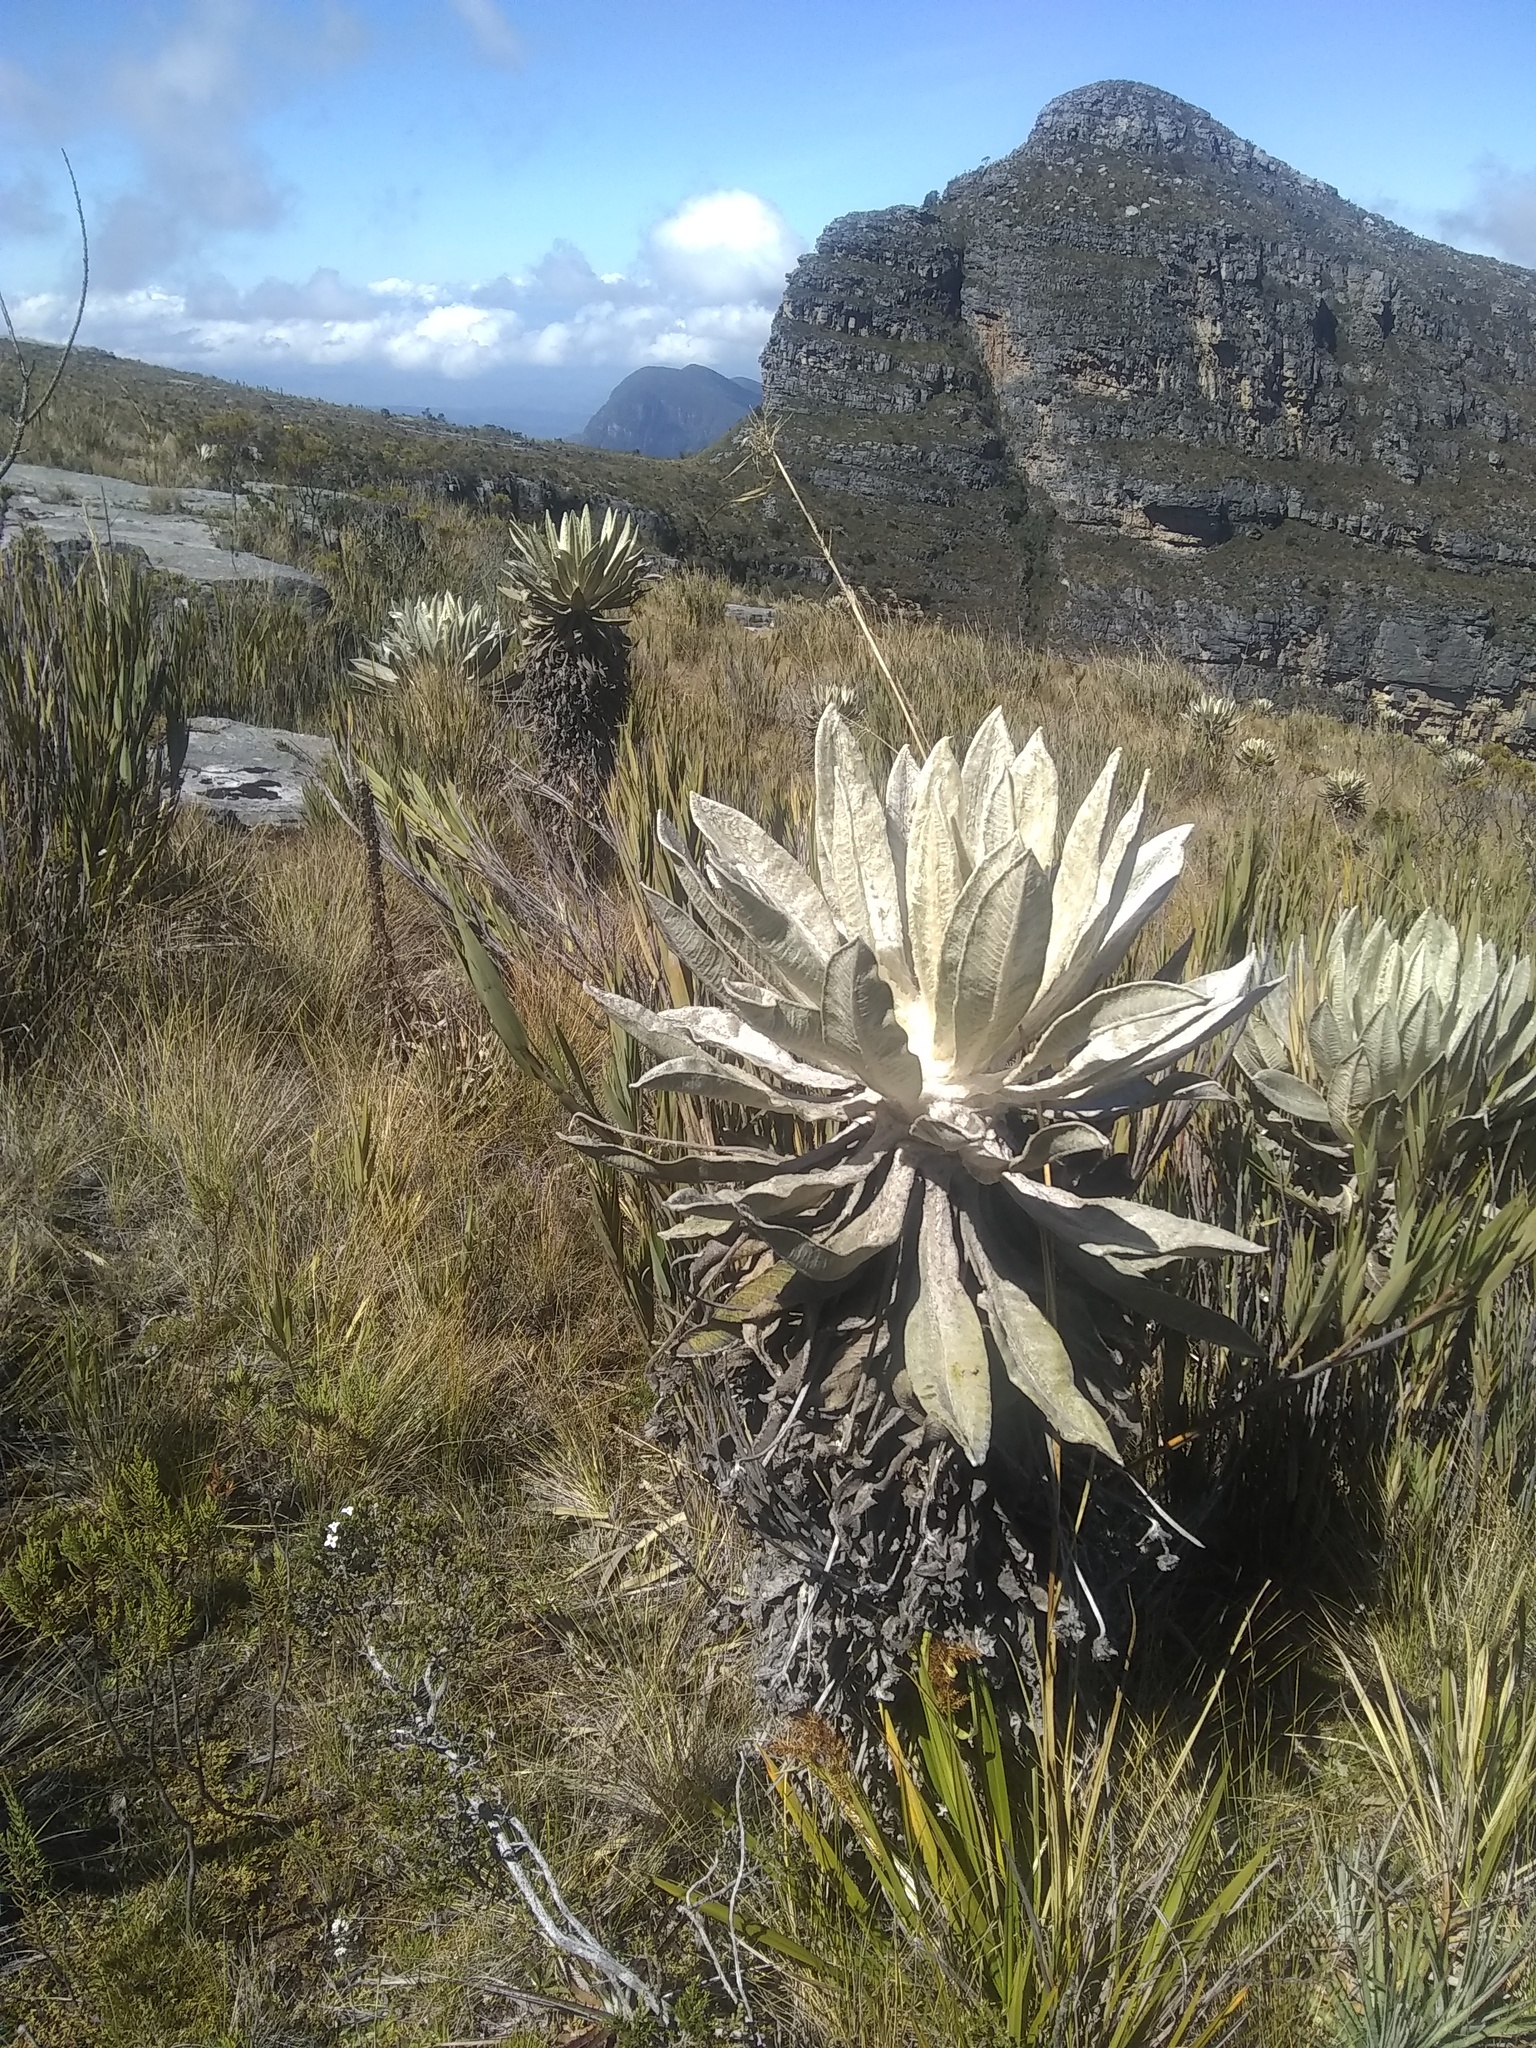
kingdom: Plantae
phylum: Tracheophyta
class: Magnoliopsida
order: Asterales
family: Asteraceae
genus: Espeletia
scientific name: Espeletia incana
